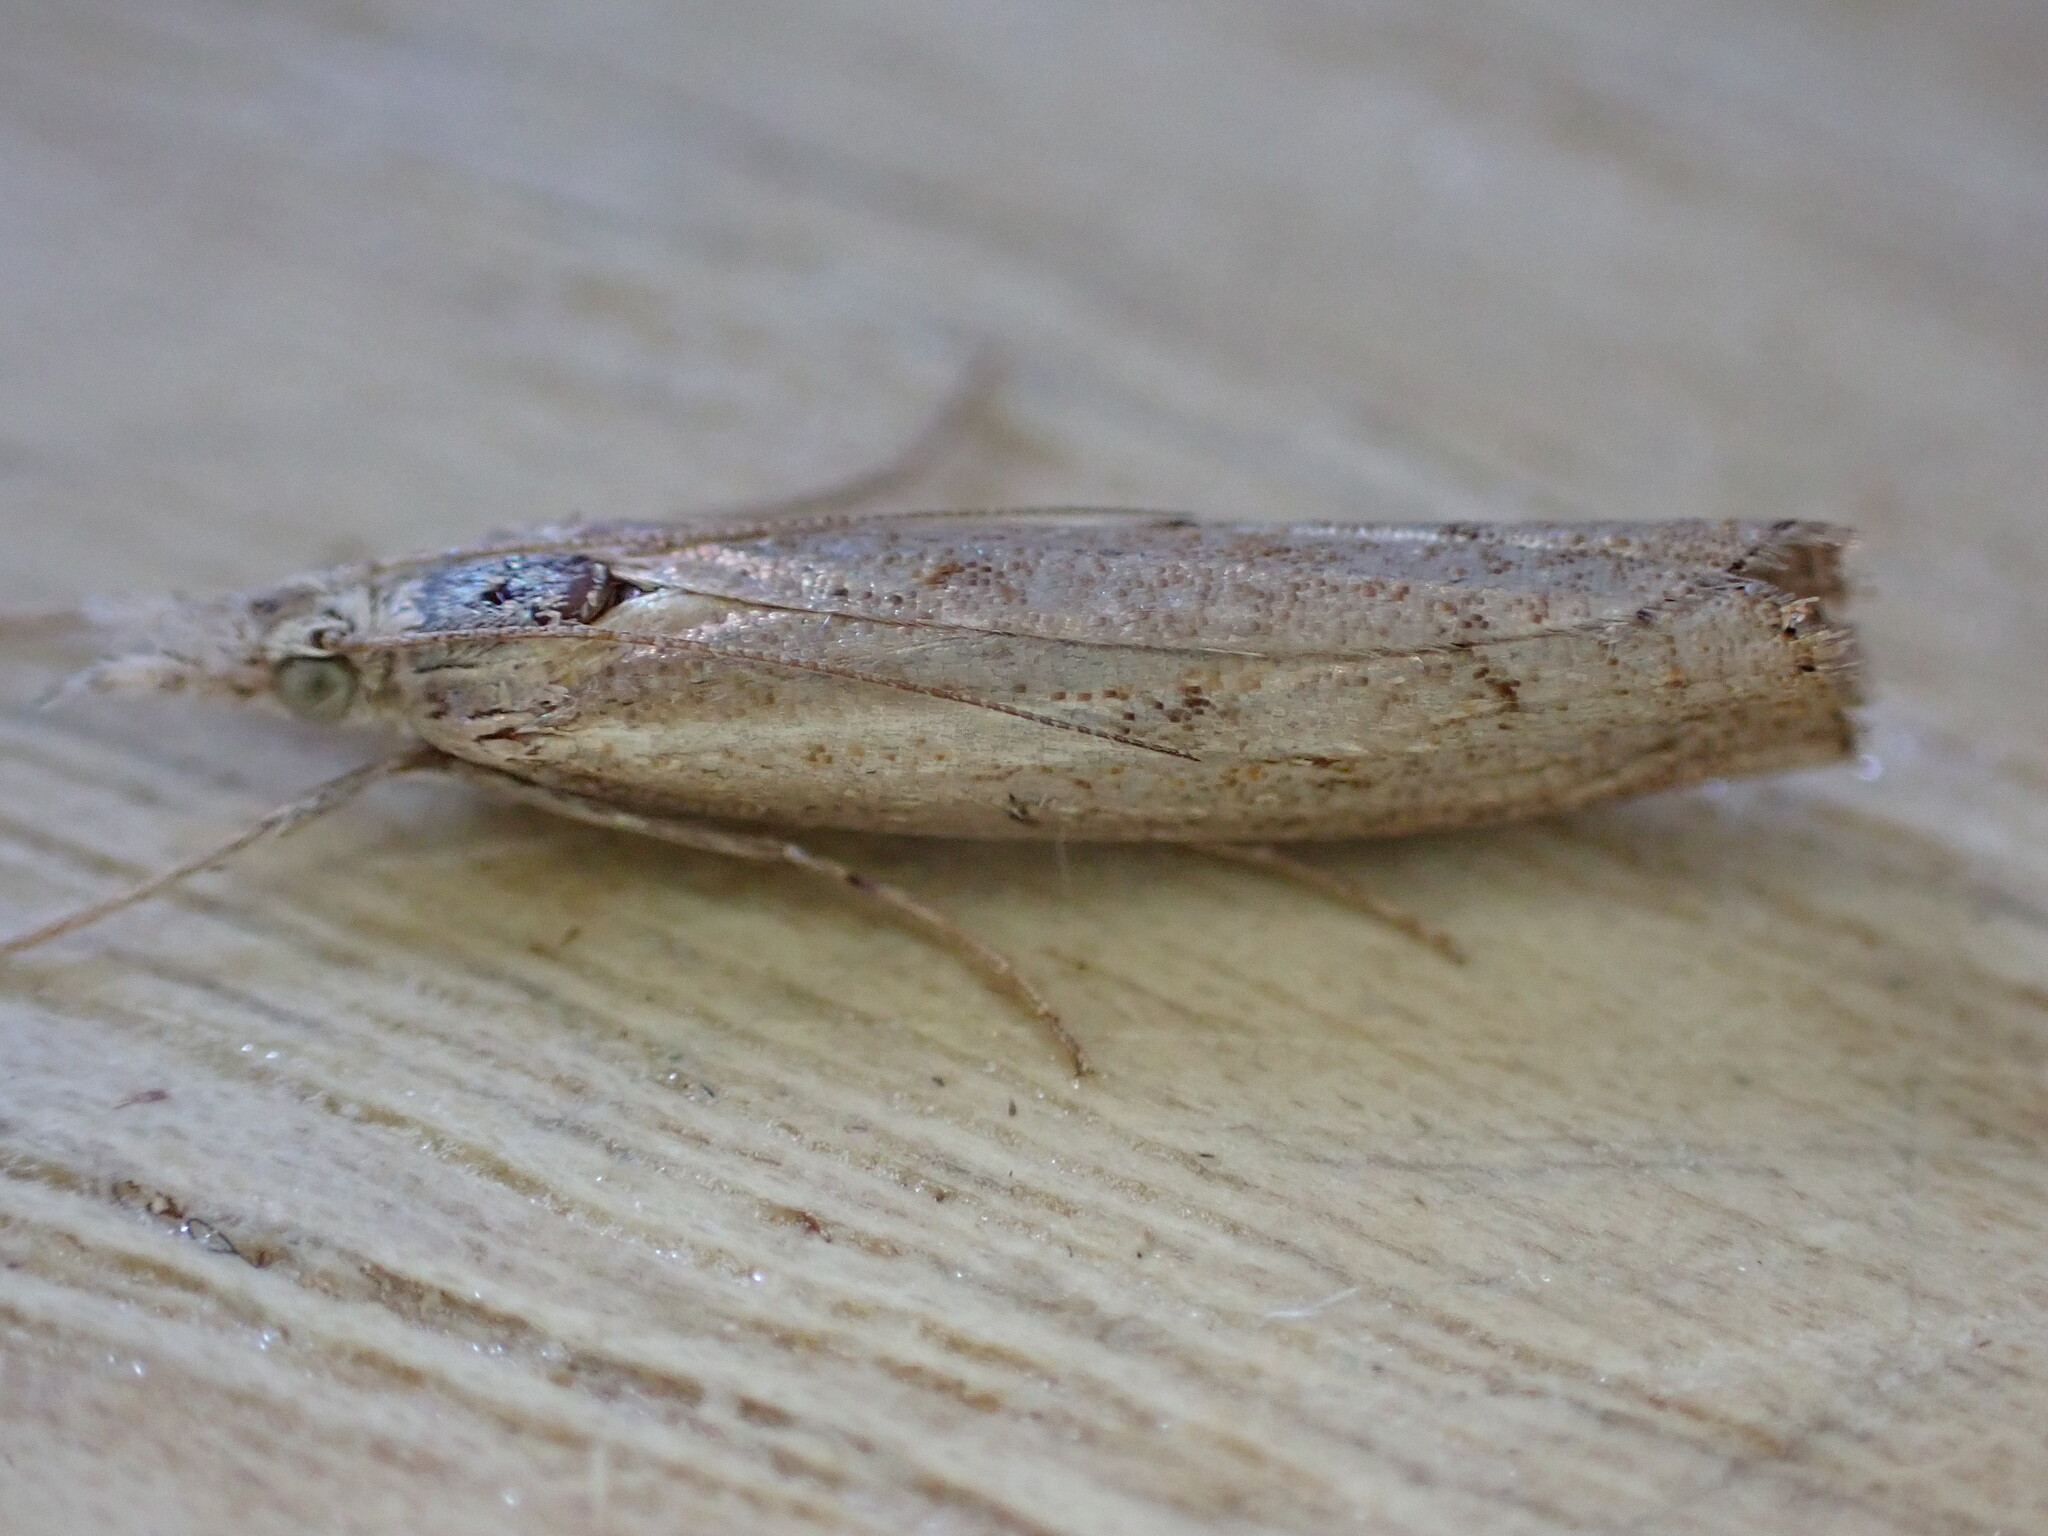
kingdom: Animalia
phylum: Arthropoda
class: Insecta
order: Lepidoptera
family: Crambidae
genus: Agriphila
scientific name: Agriphila geniculea
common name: Elbow-stripe grass-veneer
